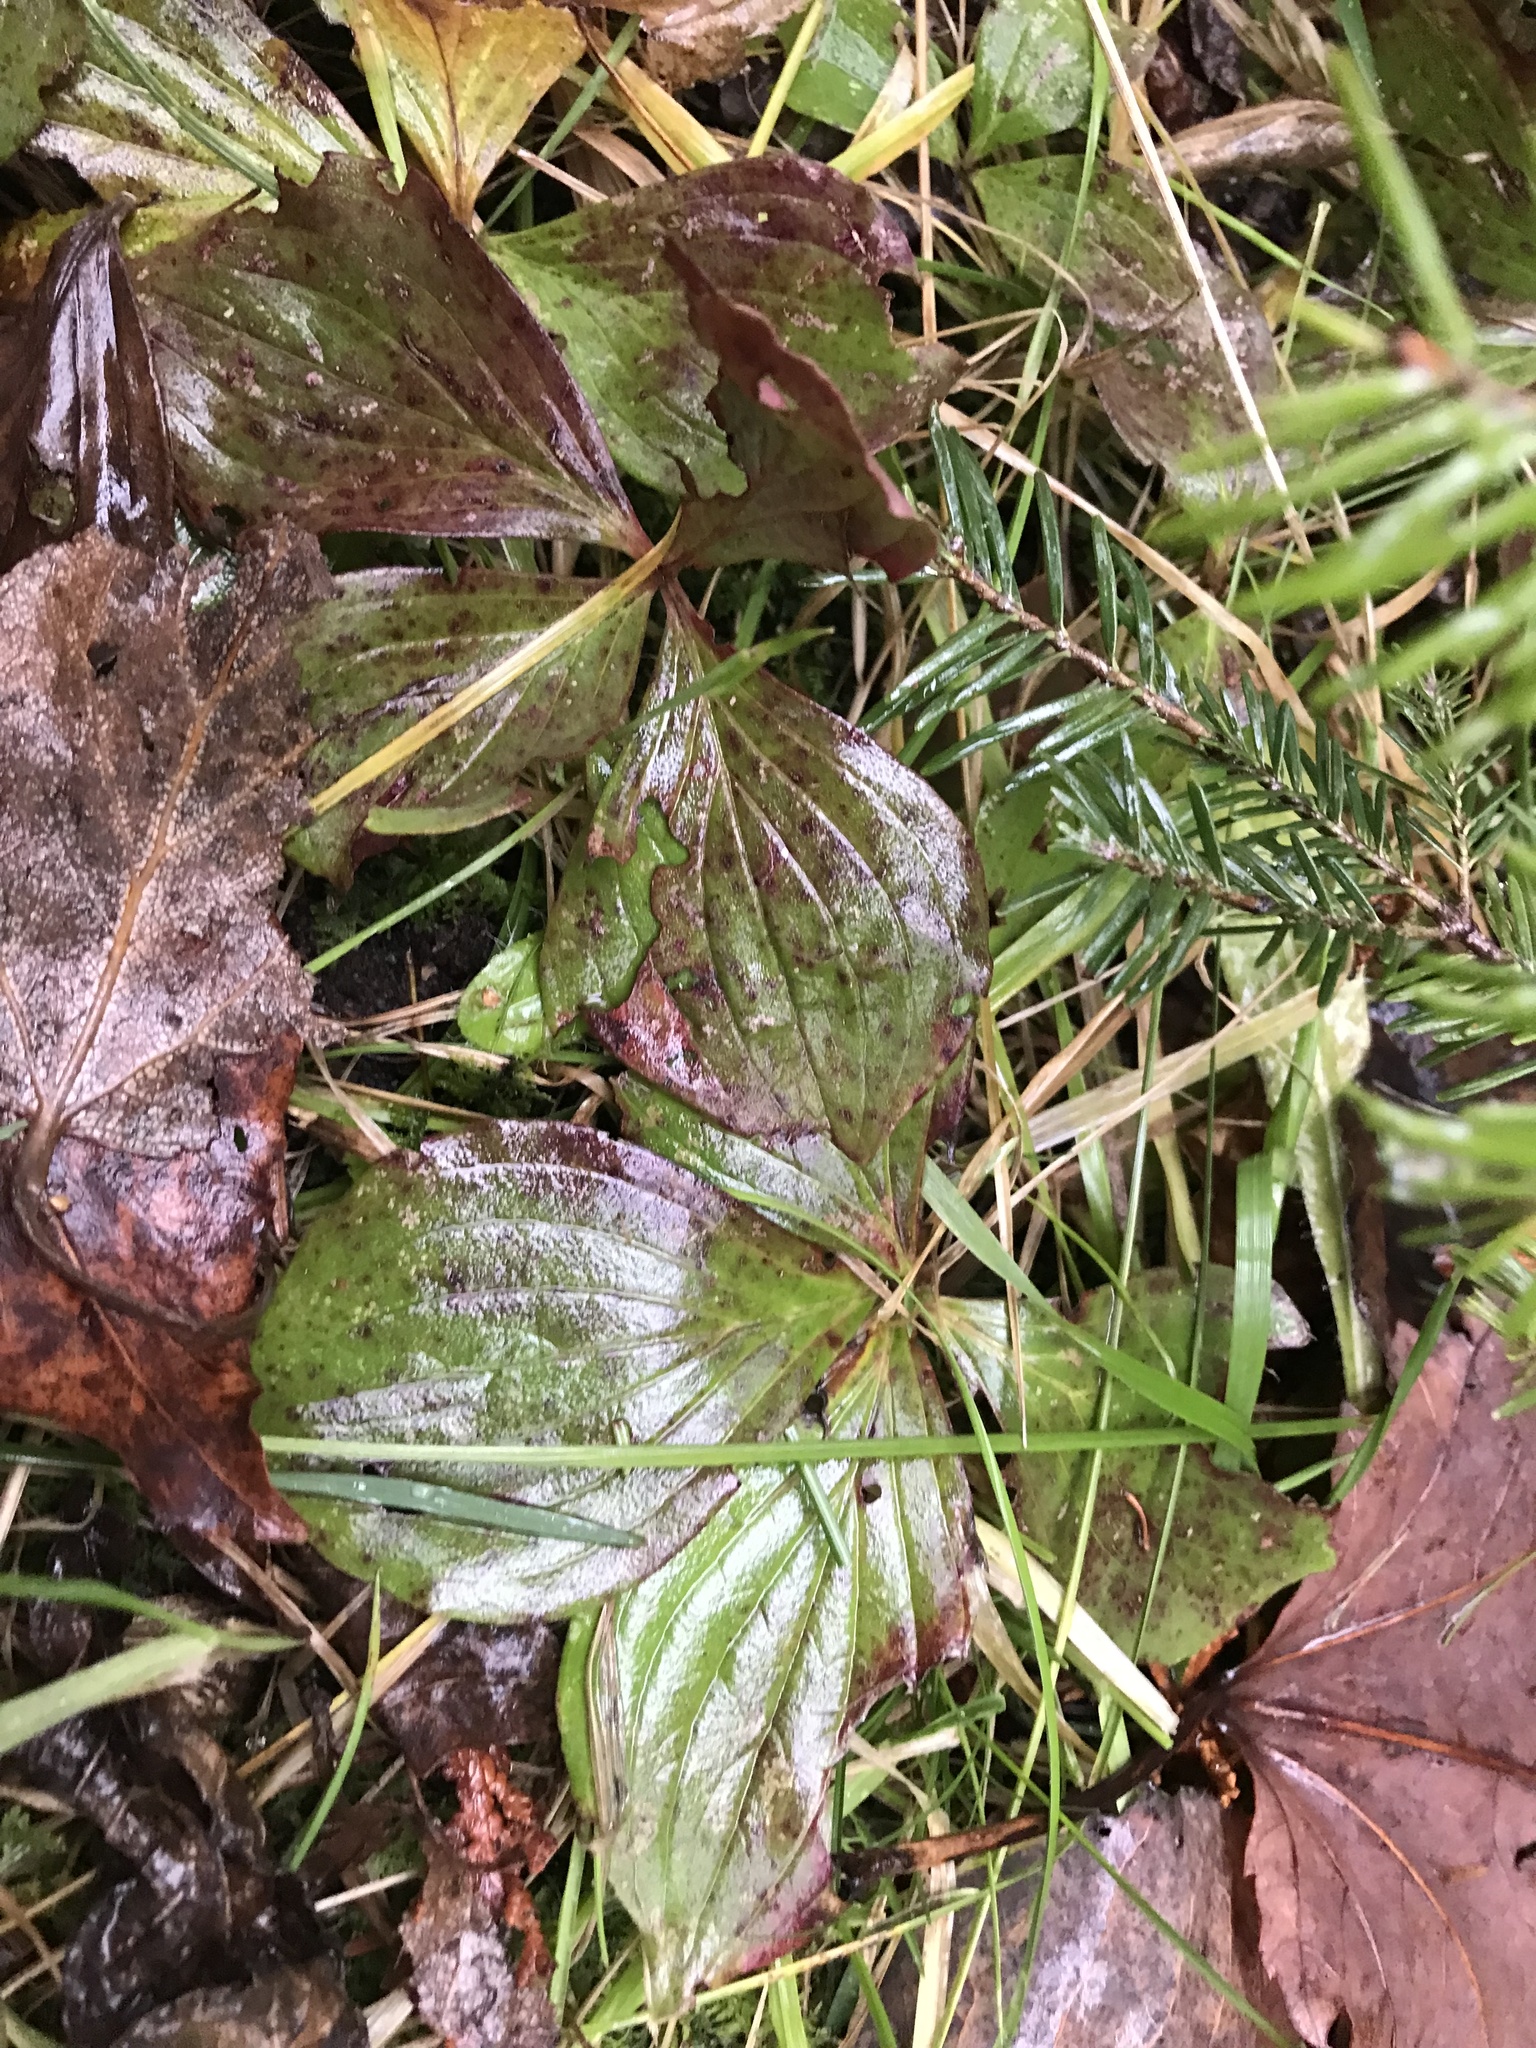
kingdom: Plantae
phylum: Tracheophyta
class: Magnoliopsida
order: Cornales
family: Cornaceae
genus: Cornus
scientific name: Cornus canadensis
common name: Creeping dogwood
